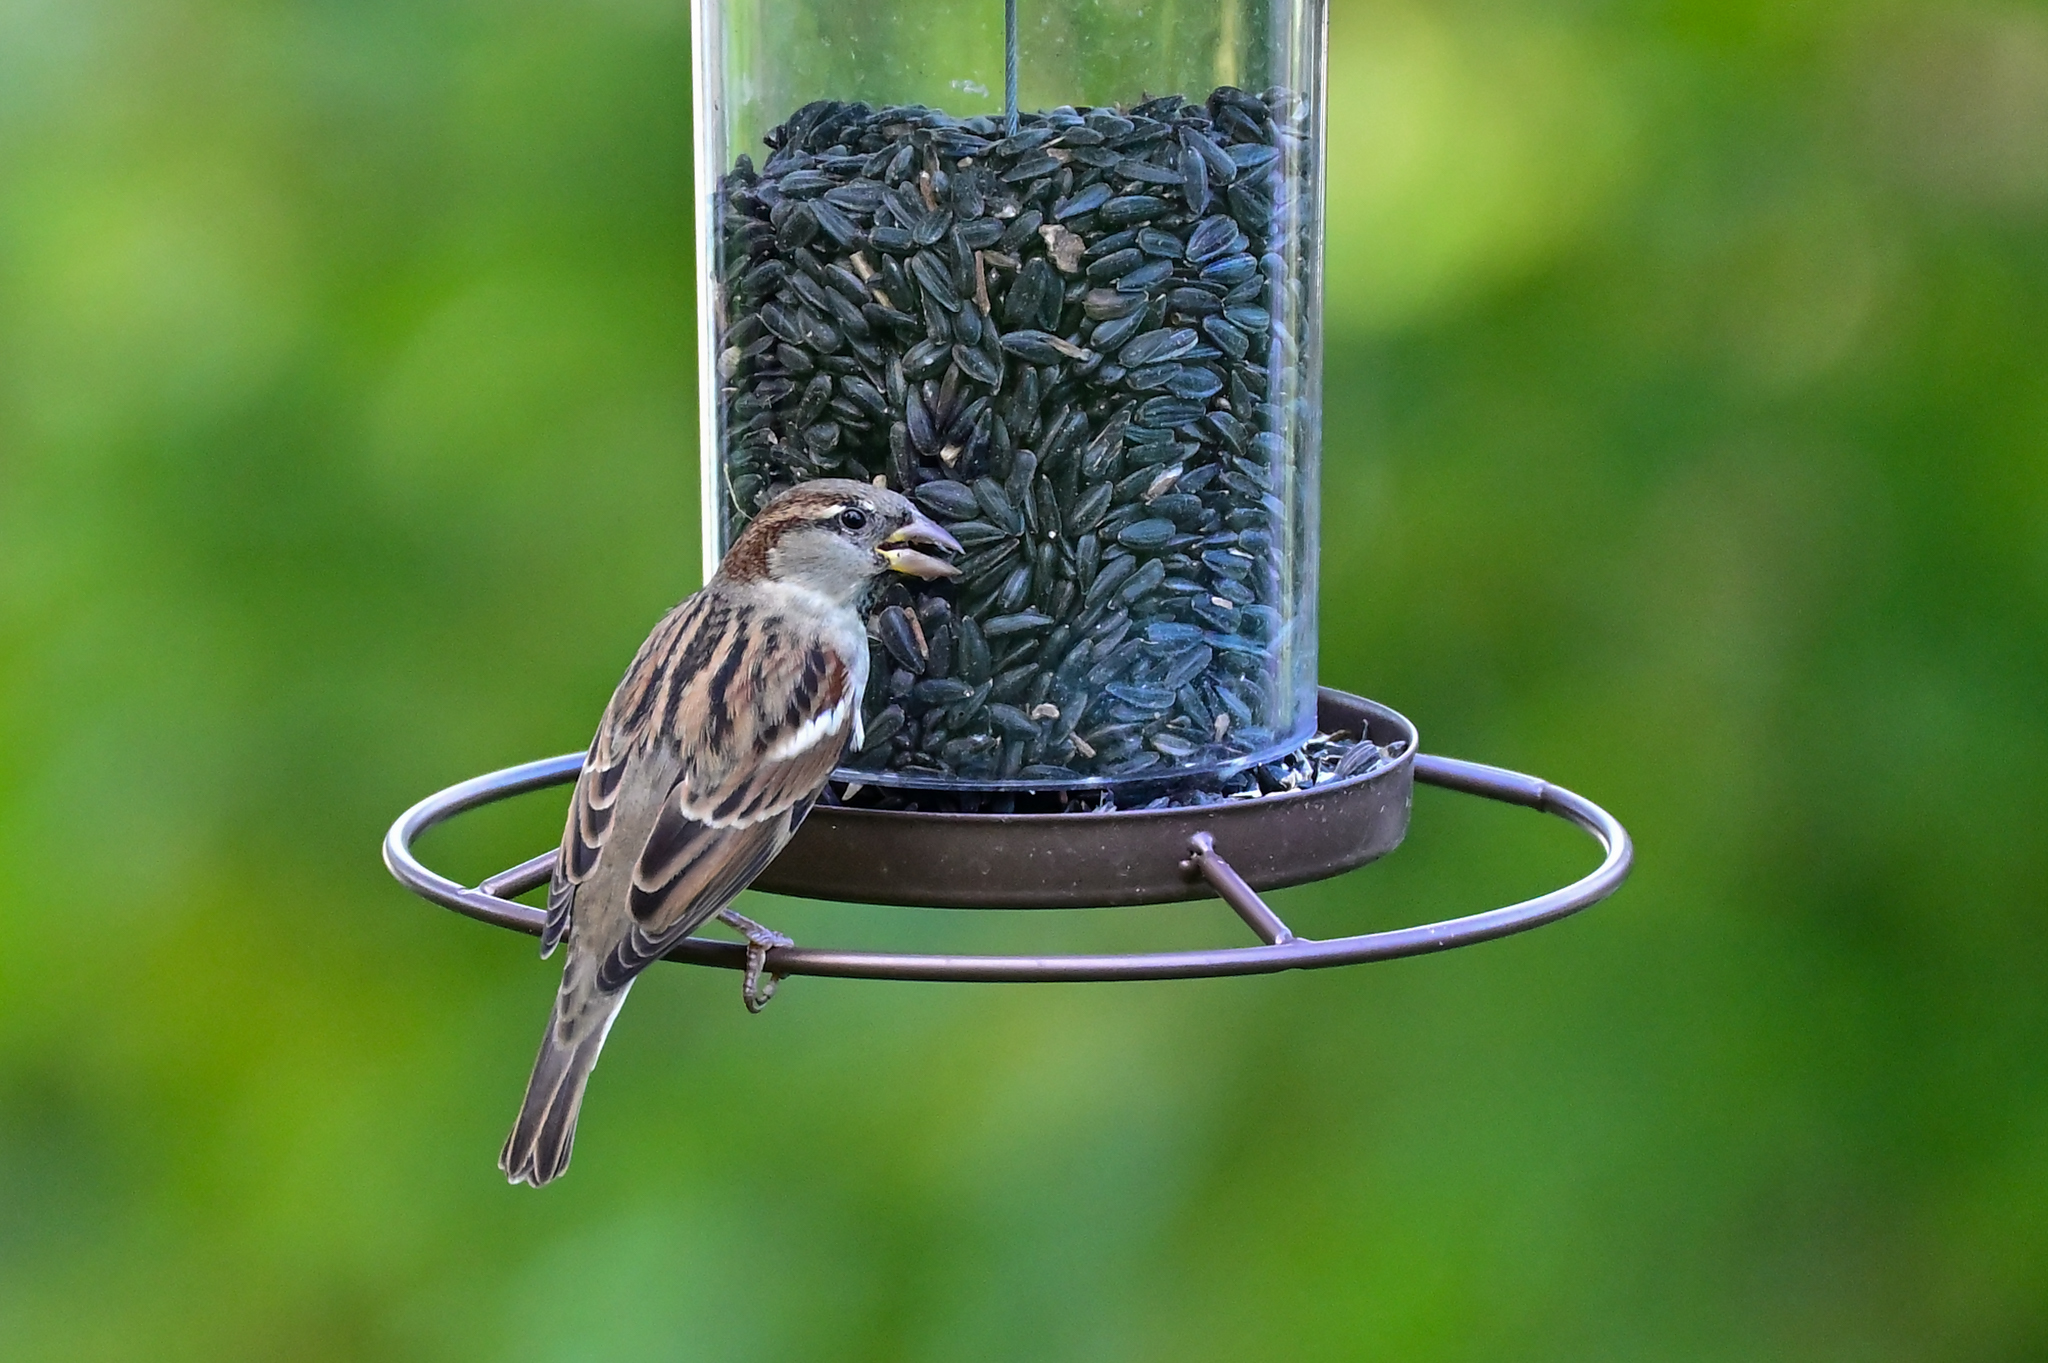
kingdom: Animalia
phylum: Chordata
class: Aves
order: Passeriformes
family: Passeridae
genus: Passer
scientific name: Passer domesticus
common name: House sparrow
